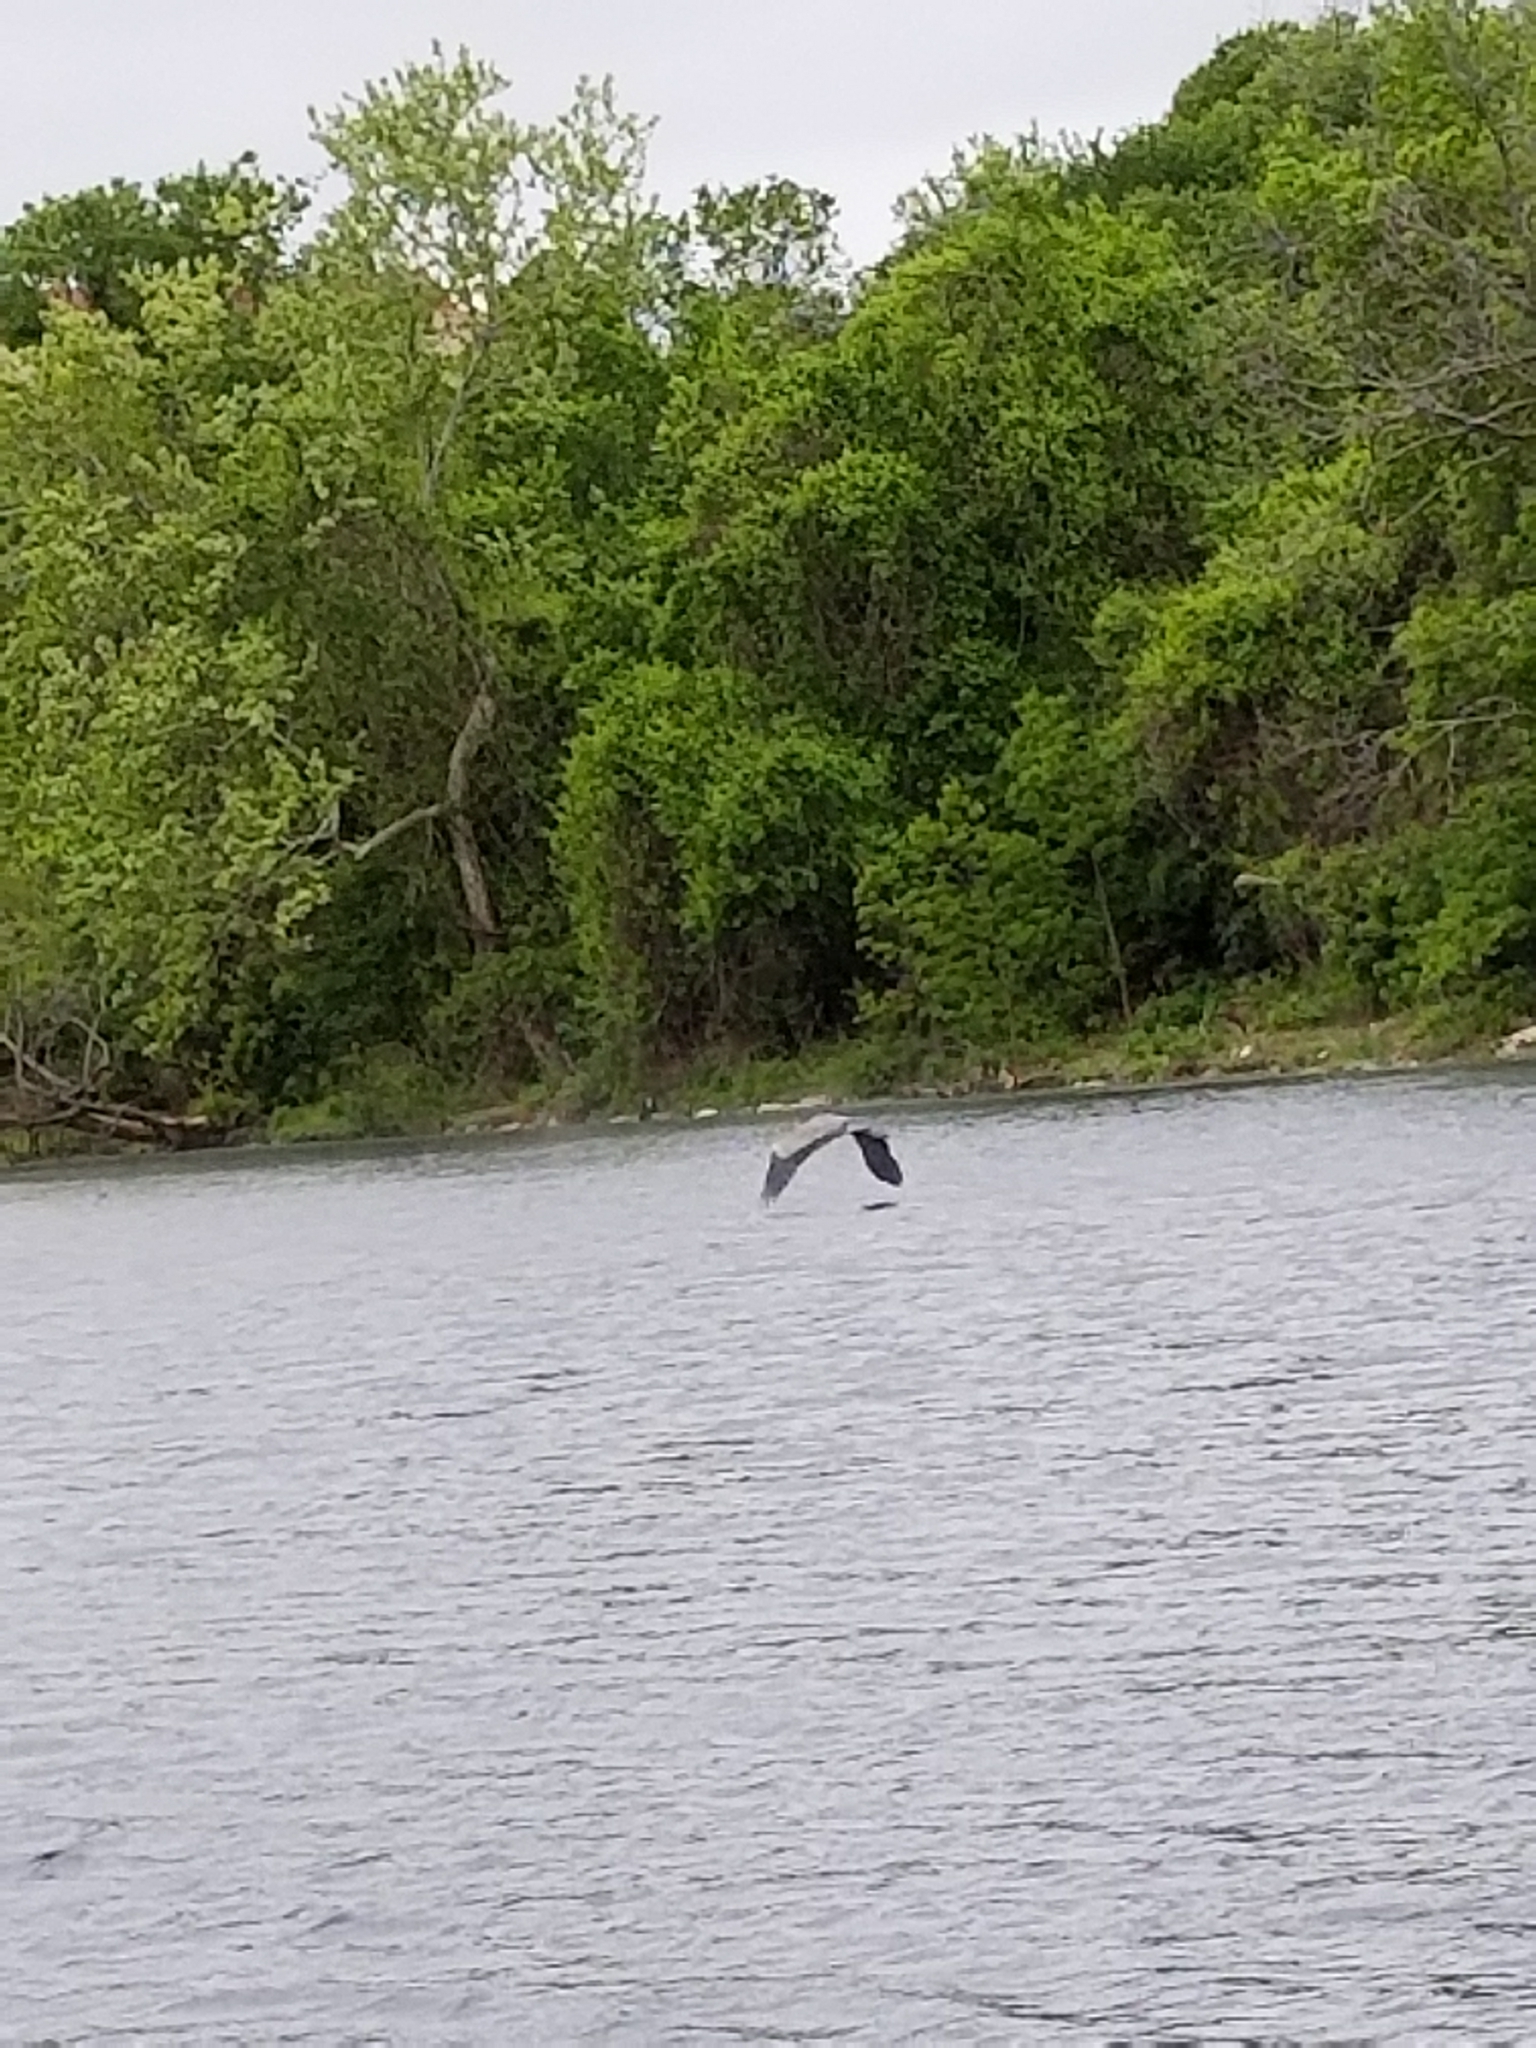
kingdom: Animalia
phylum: Chordata
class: Aves
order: Pelecaniformes
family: Ardeidae
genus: Ardea
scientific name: Ardea herodias
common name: Great blue heron
